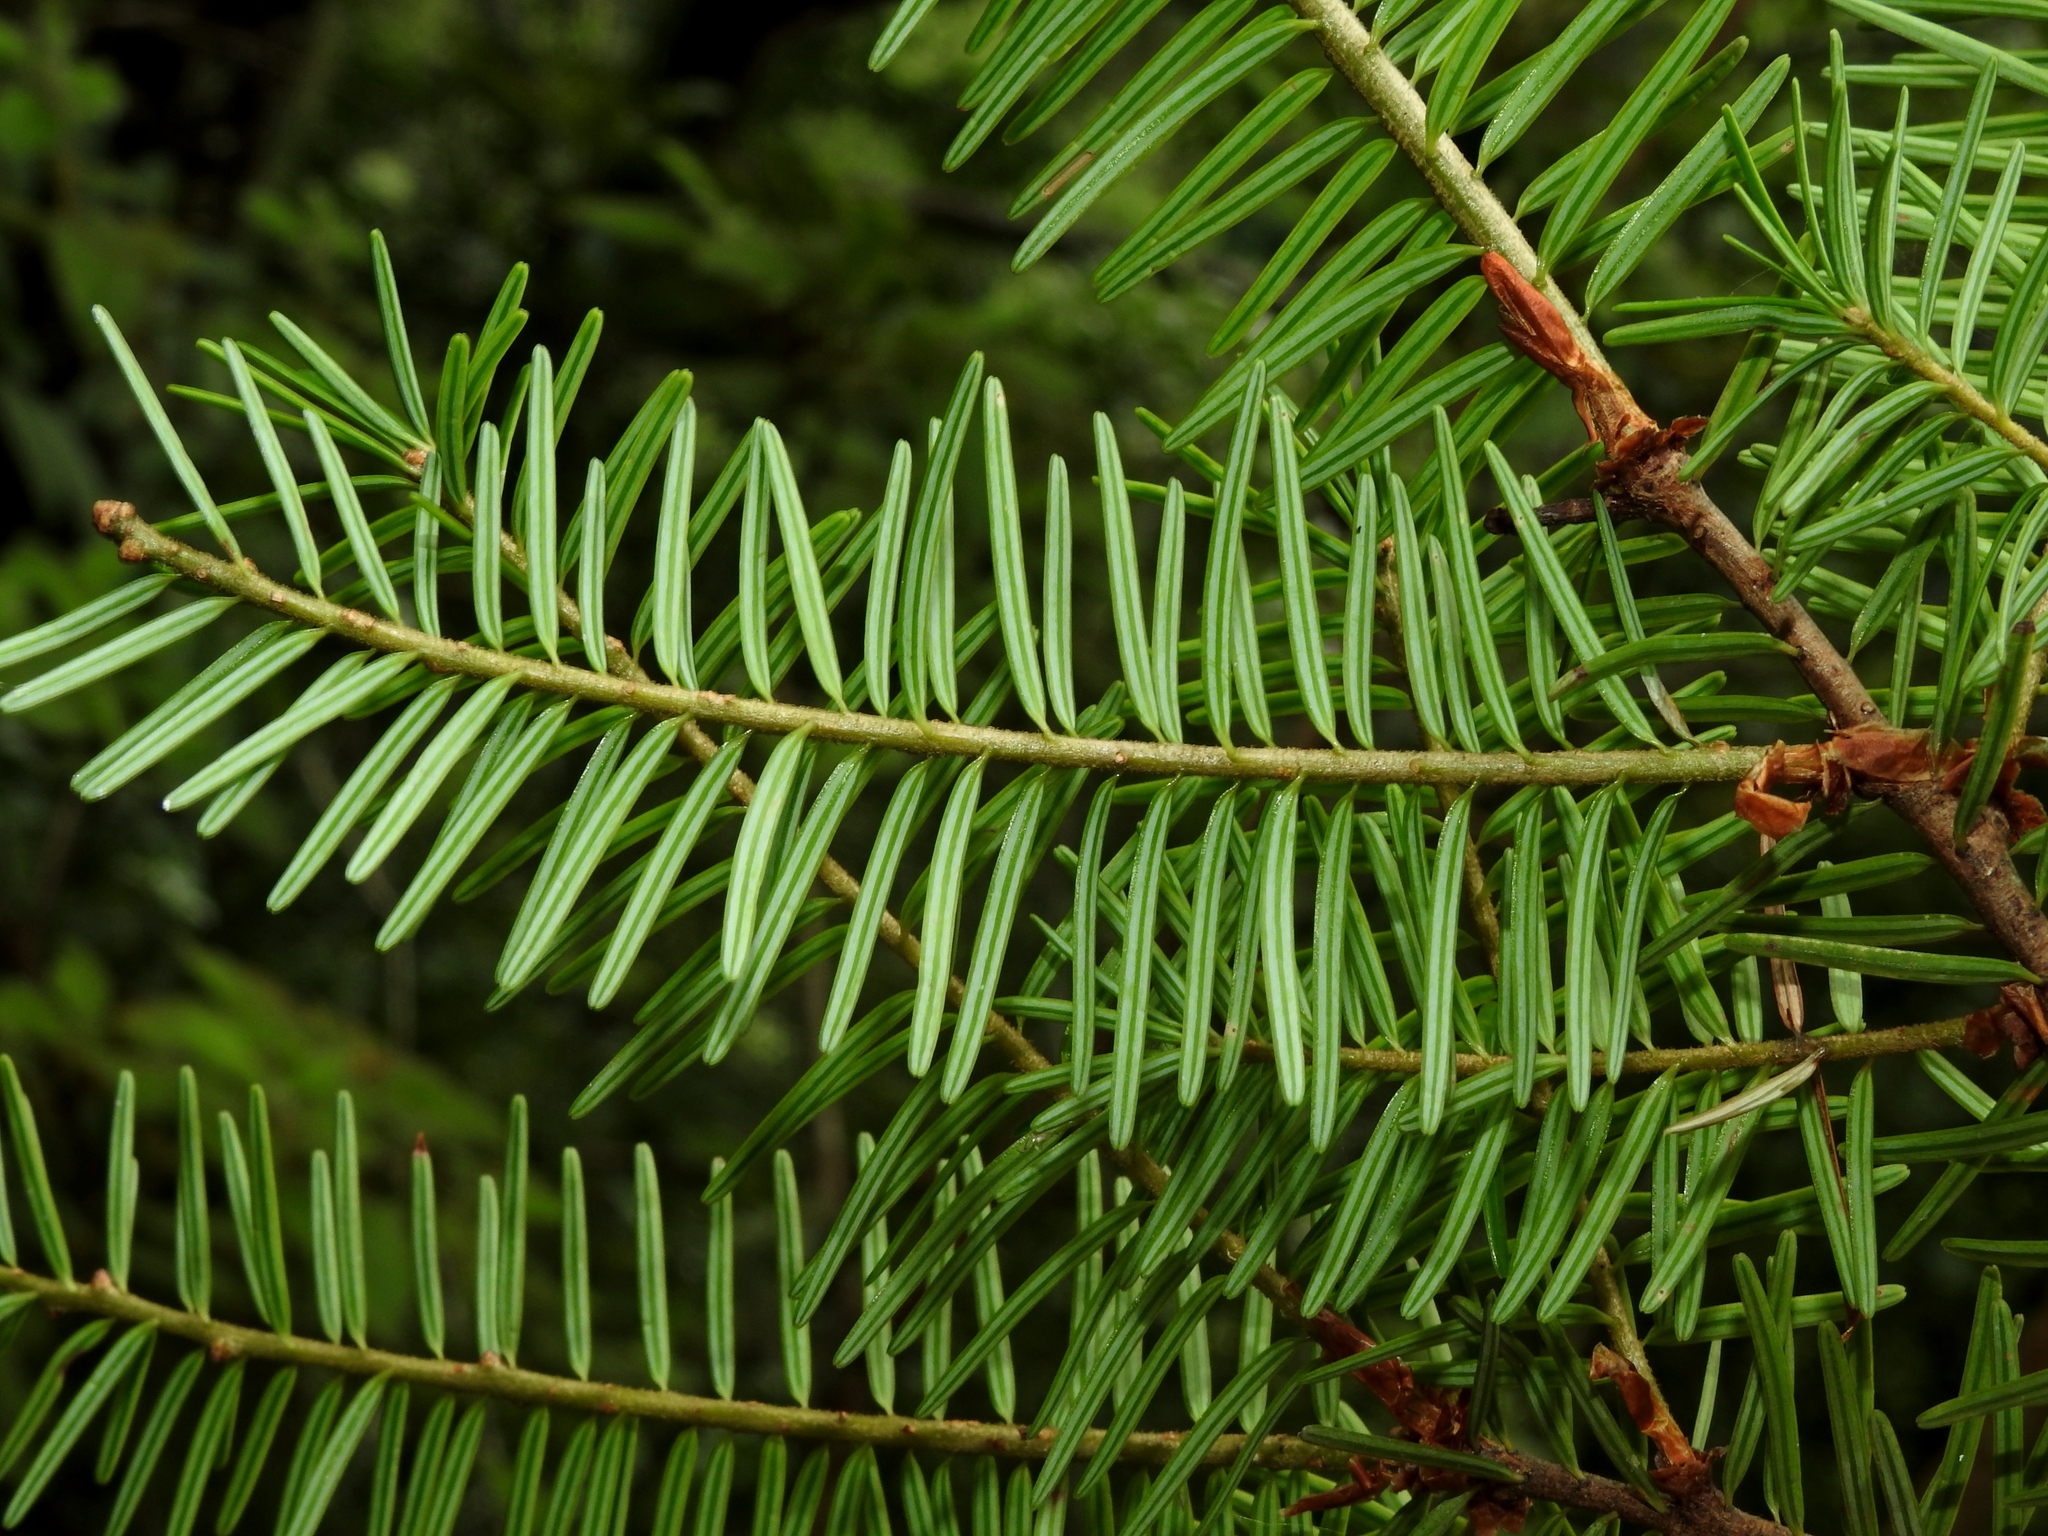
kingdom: Plantae
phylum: Tracheophyta
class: Pinopsida
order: Pinales
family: Pinaceae
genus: Pseudotsuga
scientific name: Pseudotsuga sinensis
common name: Chinese douglas-fir
